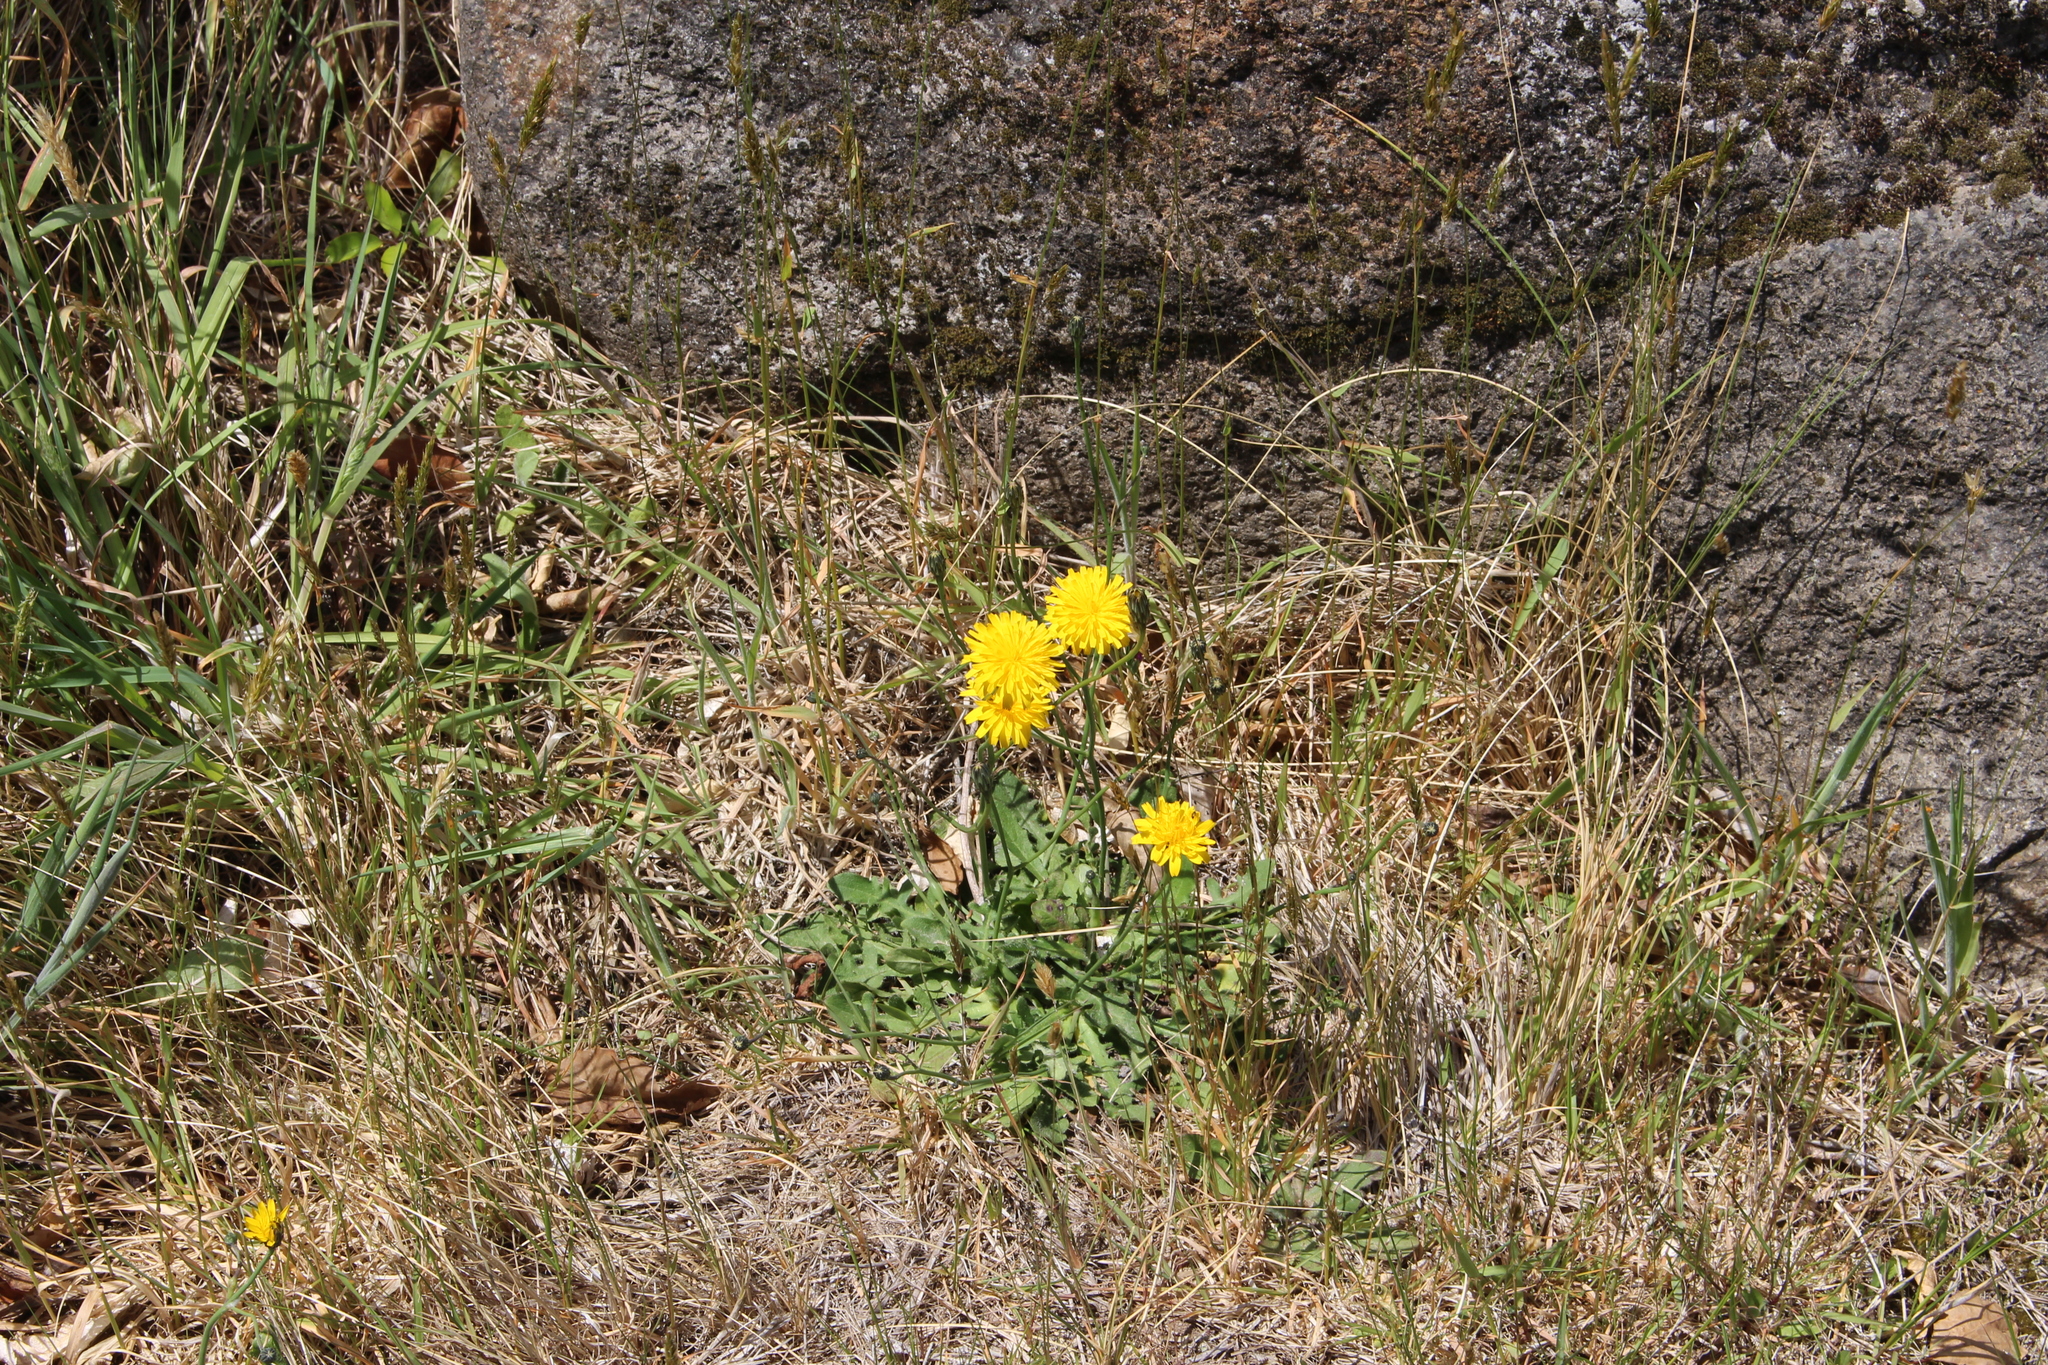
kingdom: Plantae
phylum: Tracheophyta
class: Magnoliopsida
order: Asterales
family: Asteraceae
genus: Hypochaeris
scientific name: Hypochaeris radicata
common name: Flatweed
